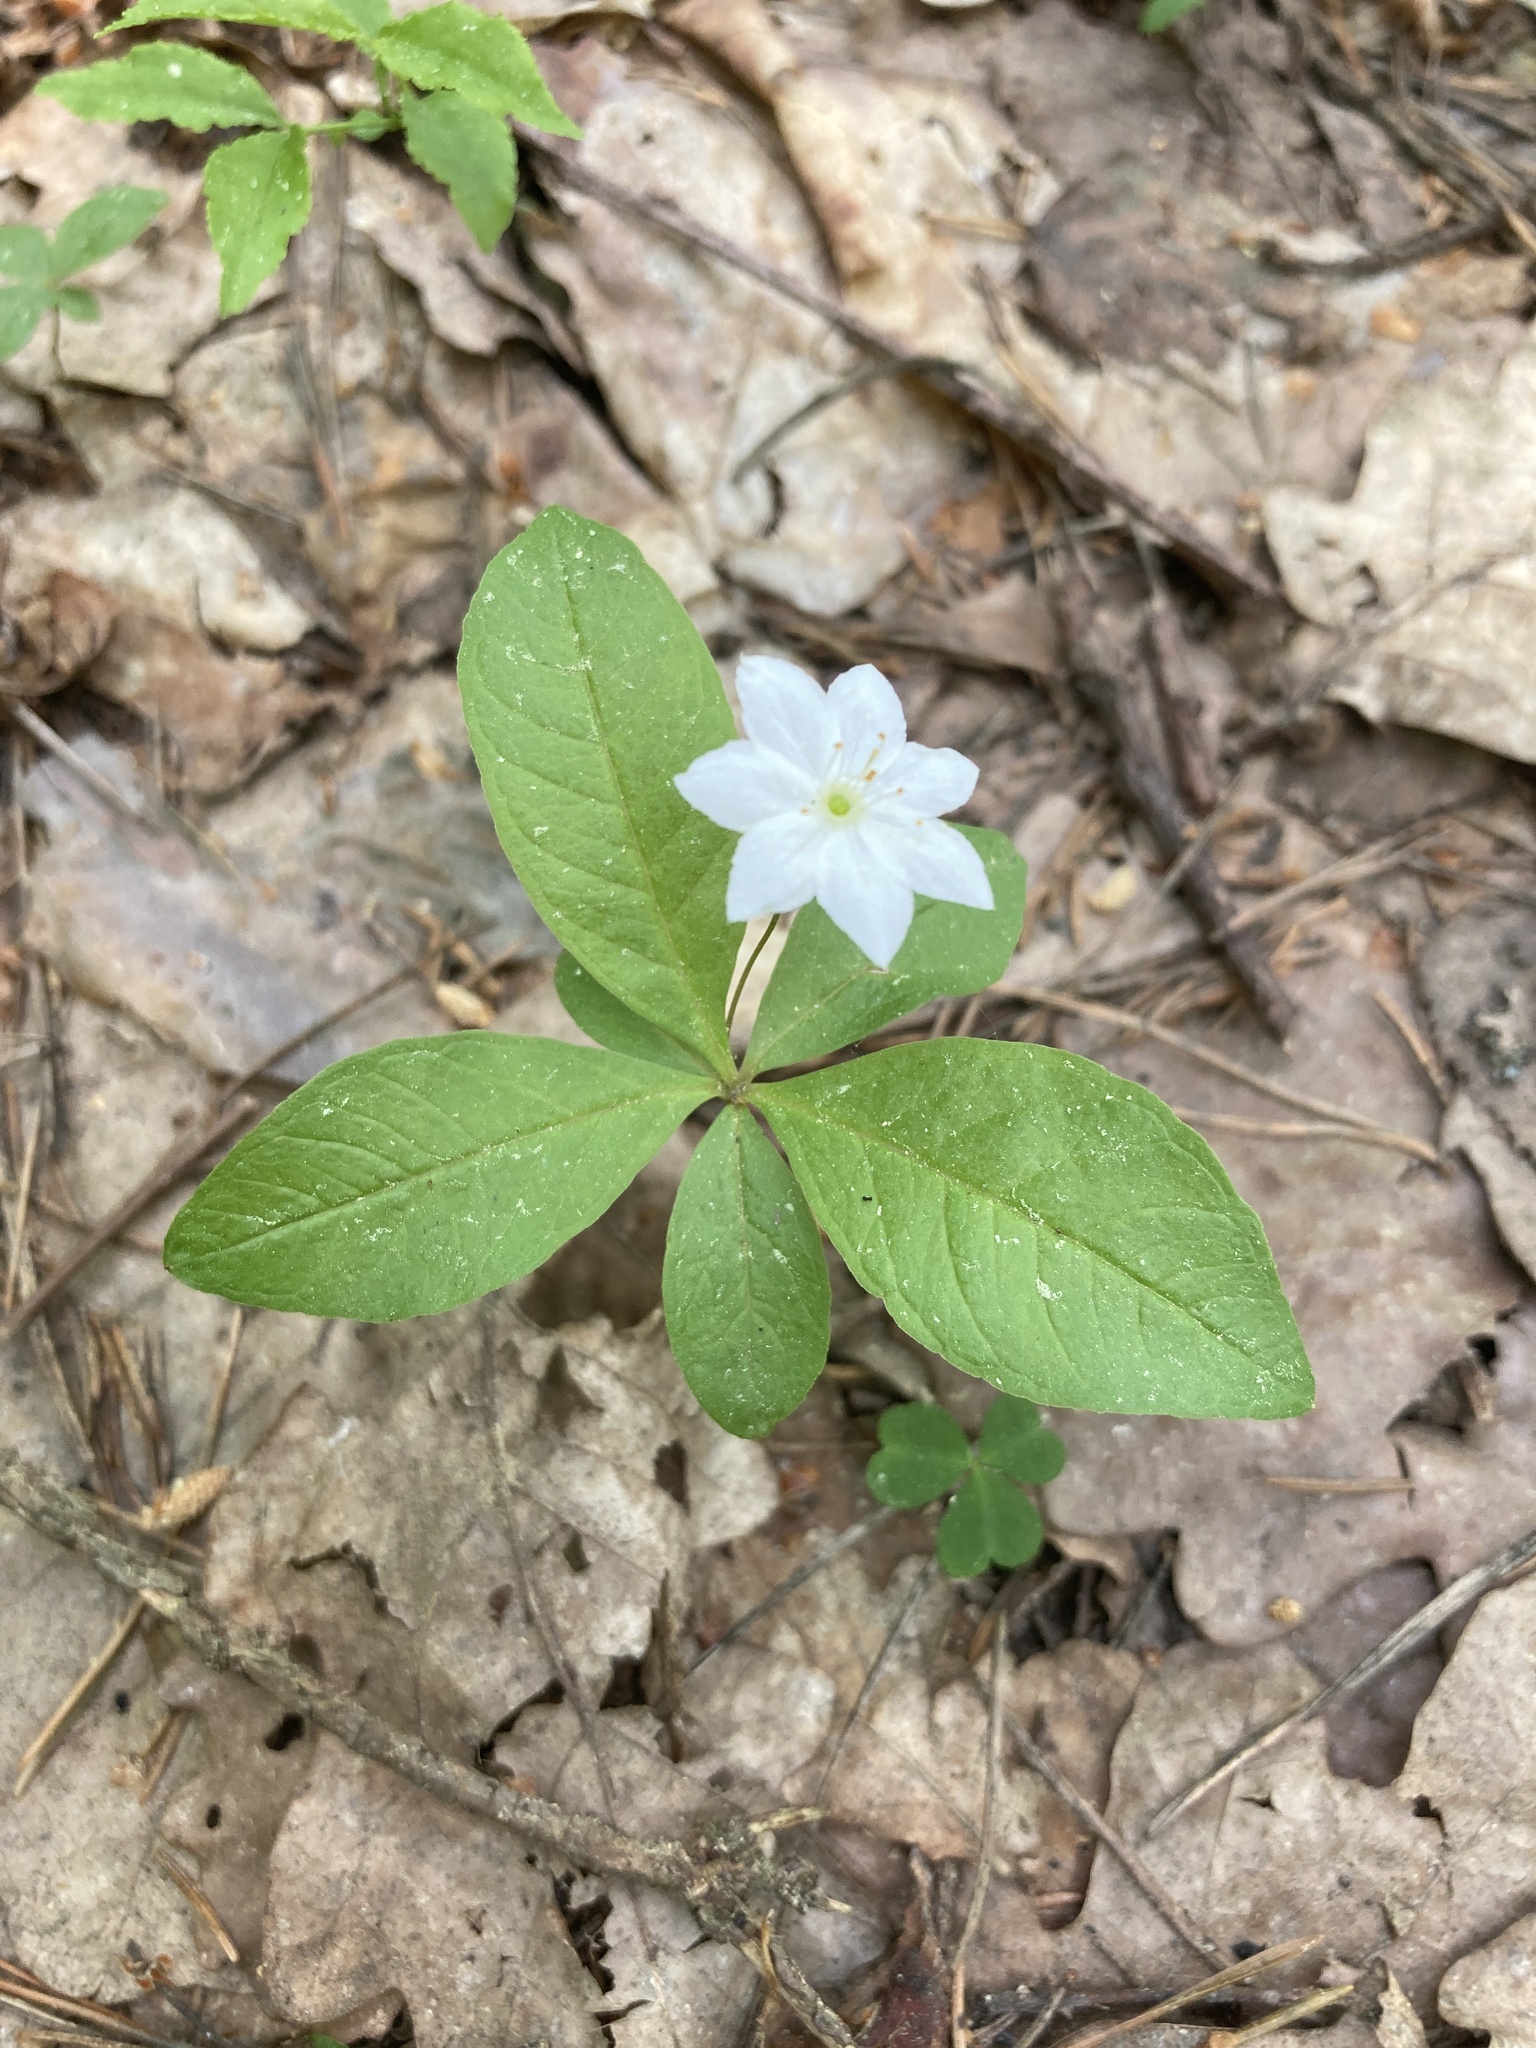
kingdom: Plantae
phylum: Tracheophyta
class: Magnoliopsida
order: Ericales
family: Primulaceae
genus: Lysimachia
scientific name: Lysimachia europaea
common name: Arctic starflower
